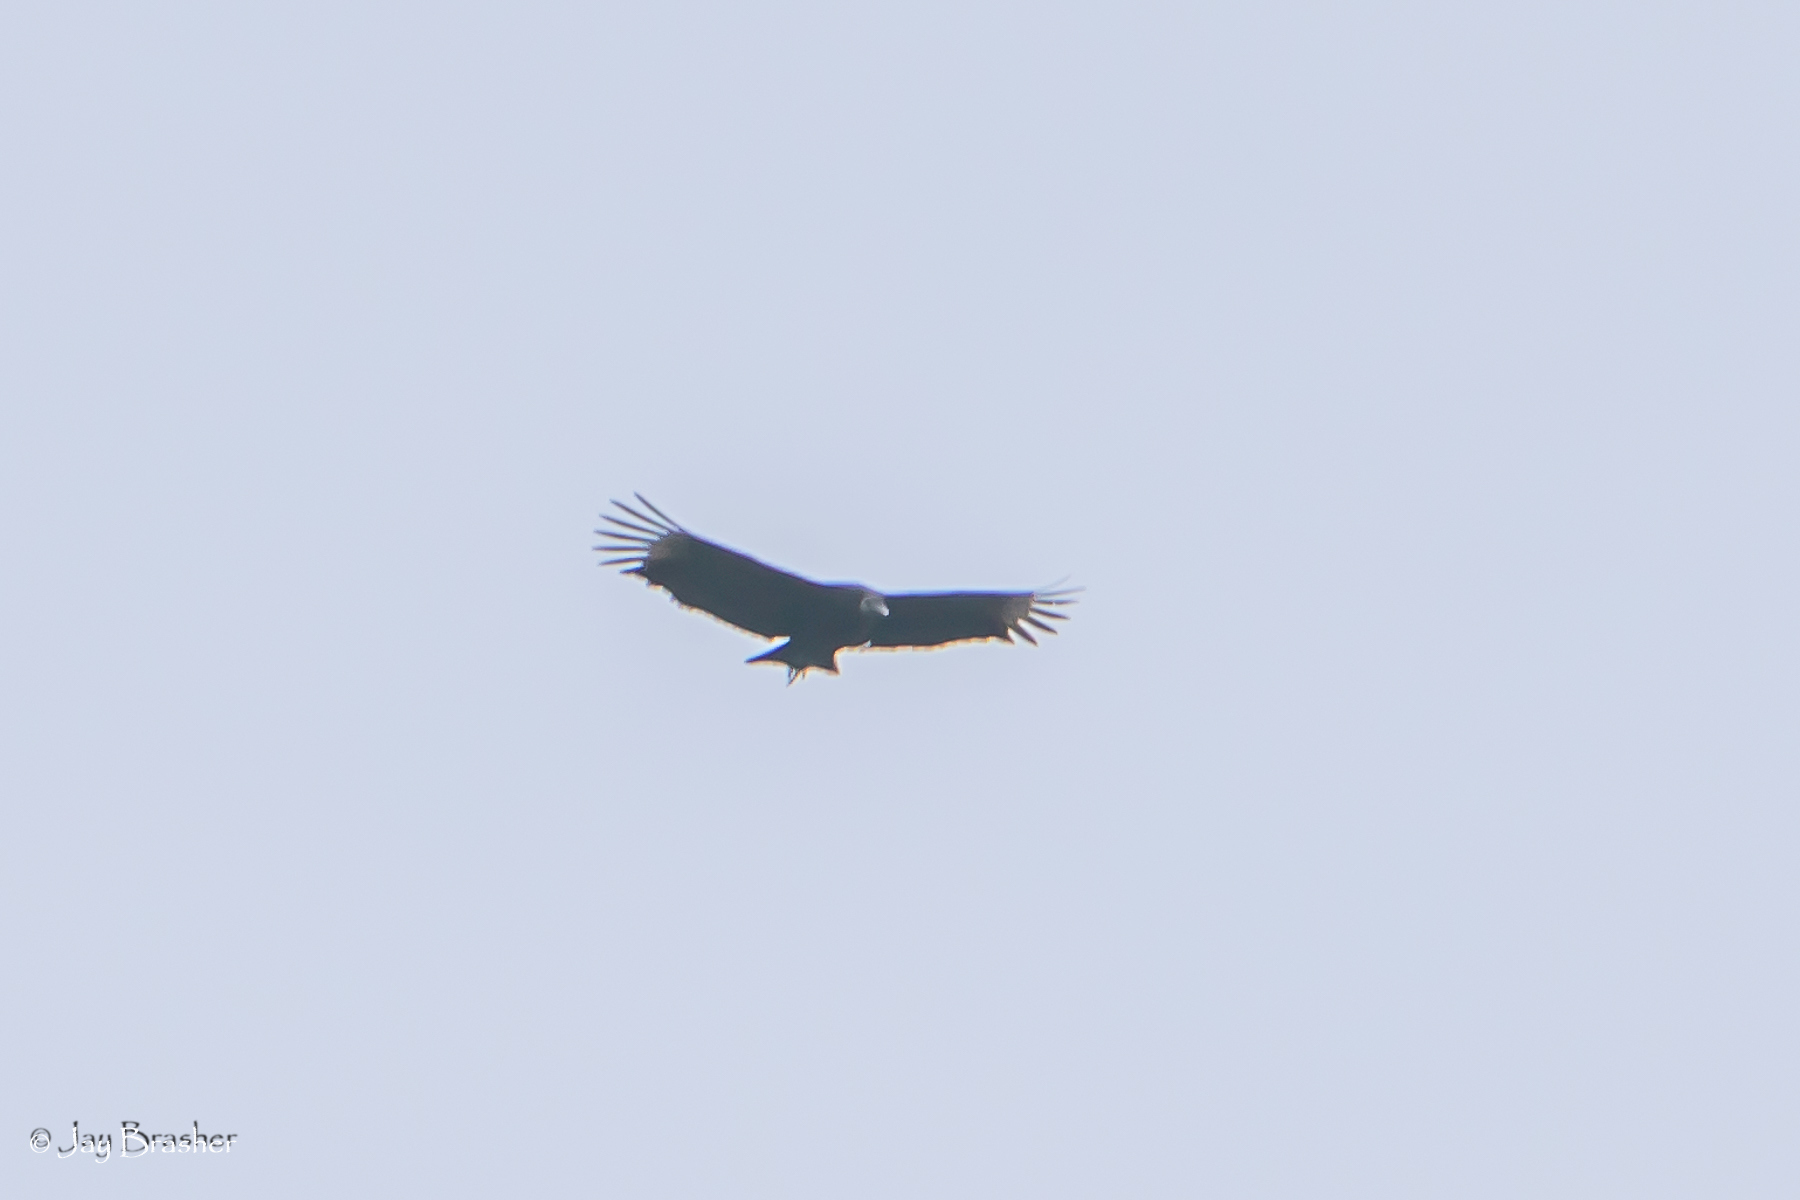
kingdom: Animalia
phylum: Chordata
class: Aves
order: Accipitriformes
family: Cathartidae
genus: Coragyps
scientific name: Coragyps atratus
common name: Black vulture
